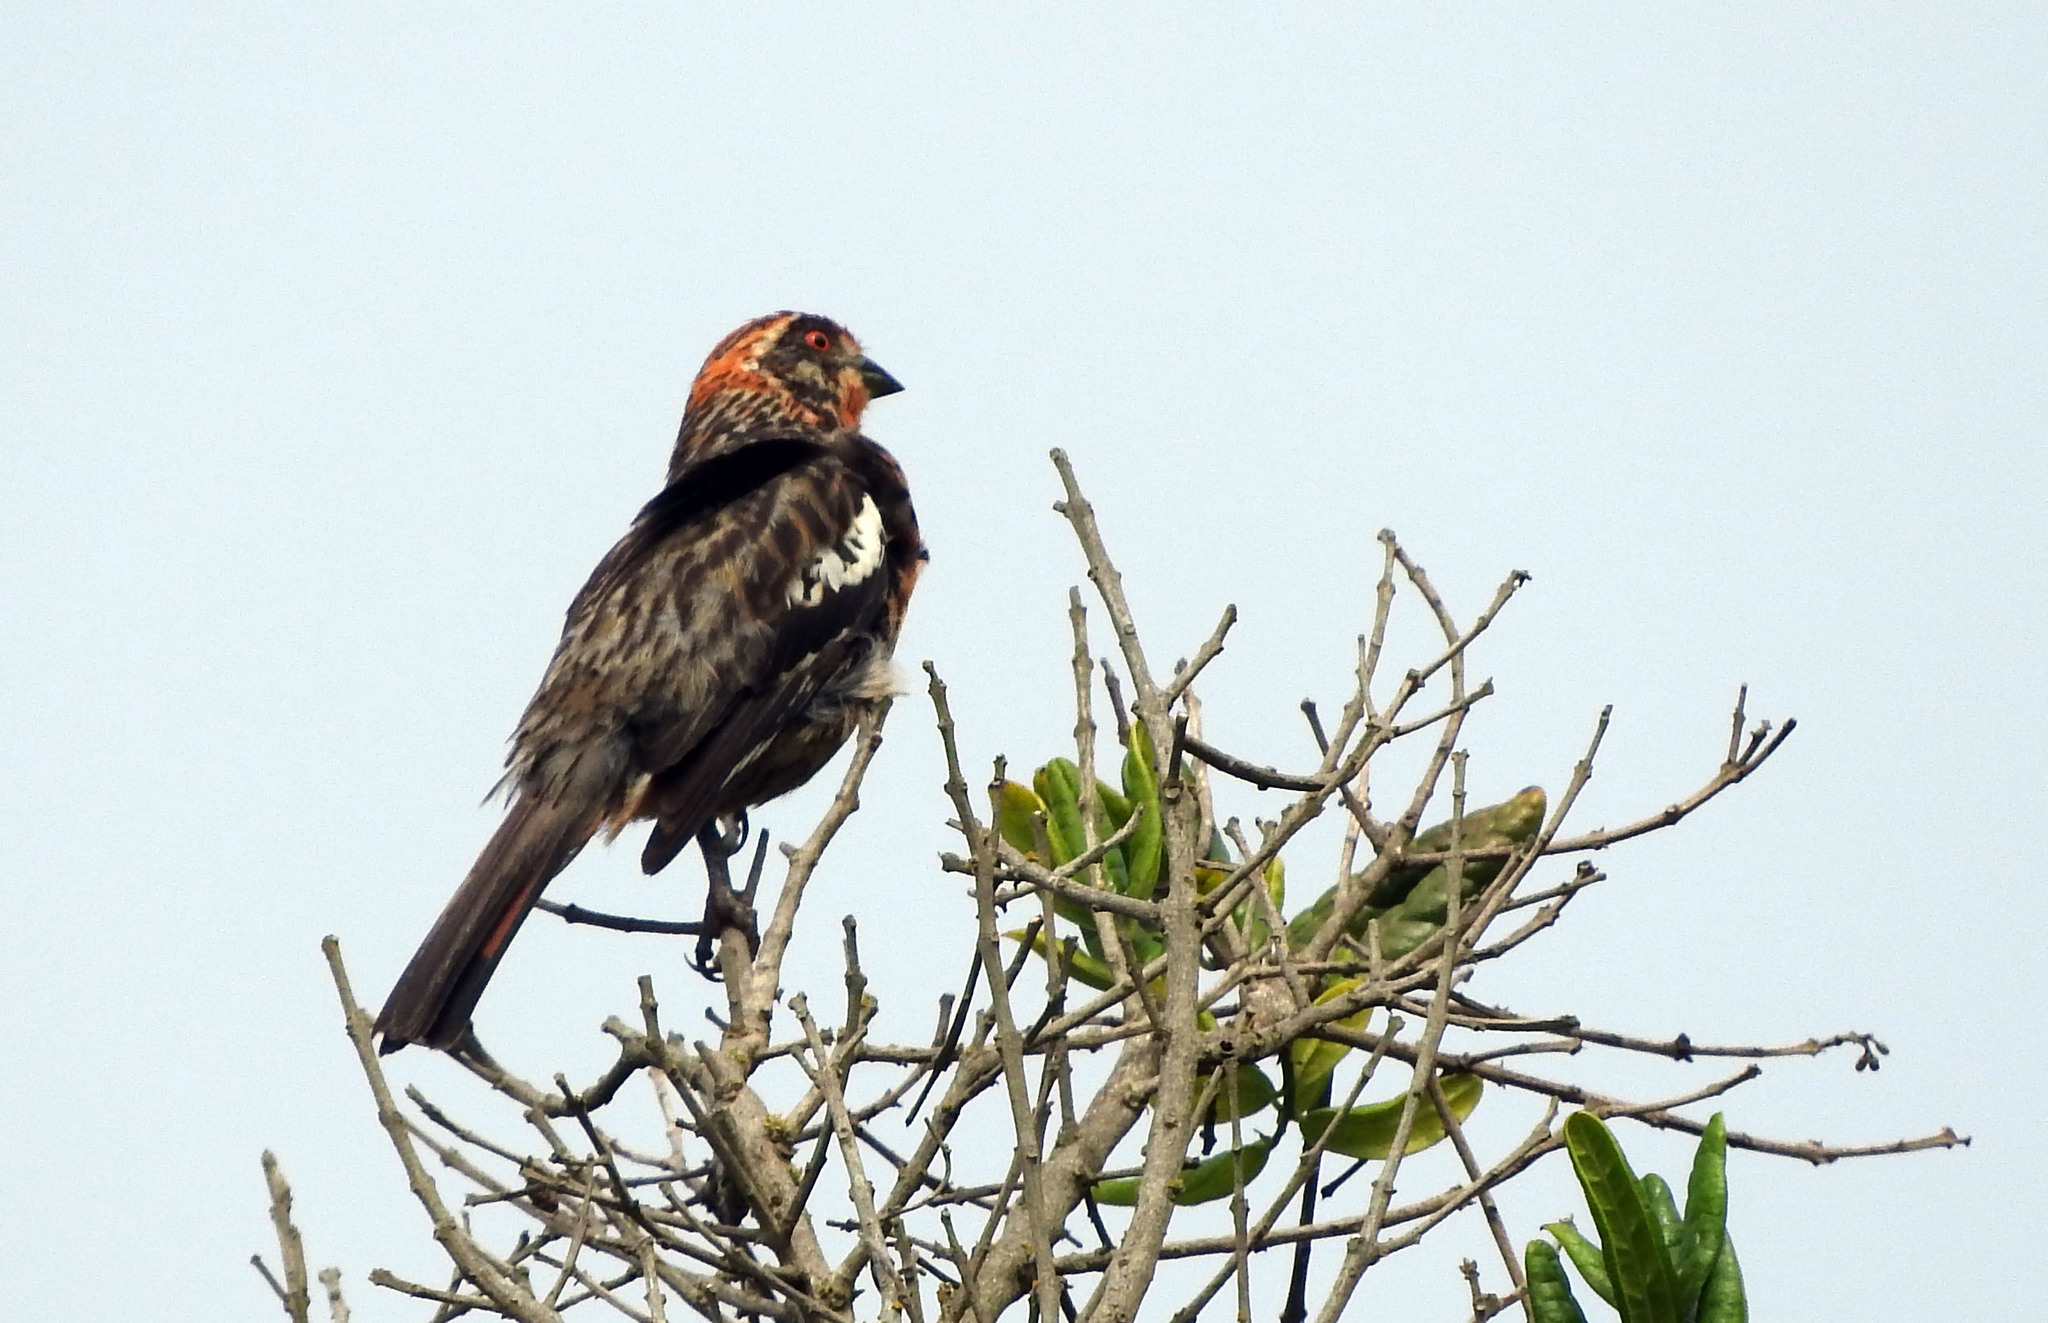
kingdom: Animalia
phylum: Chordata
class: Aves
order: Passeriformes
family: Cotingidae
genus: Phytotoma
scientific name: Phytotoma rara
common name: Rufous-tailed plantcutter
